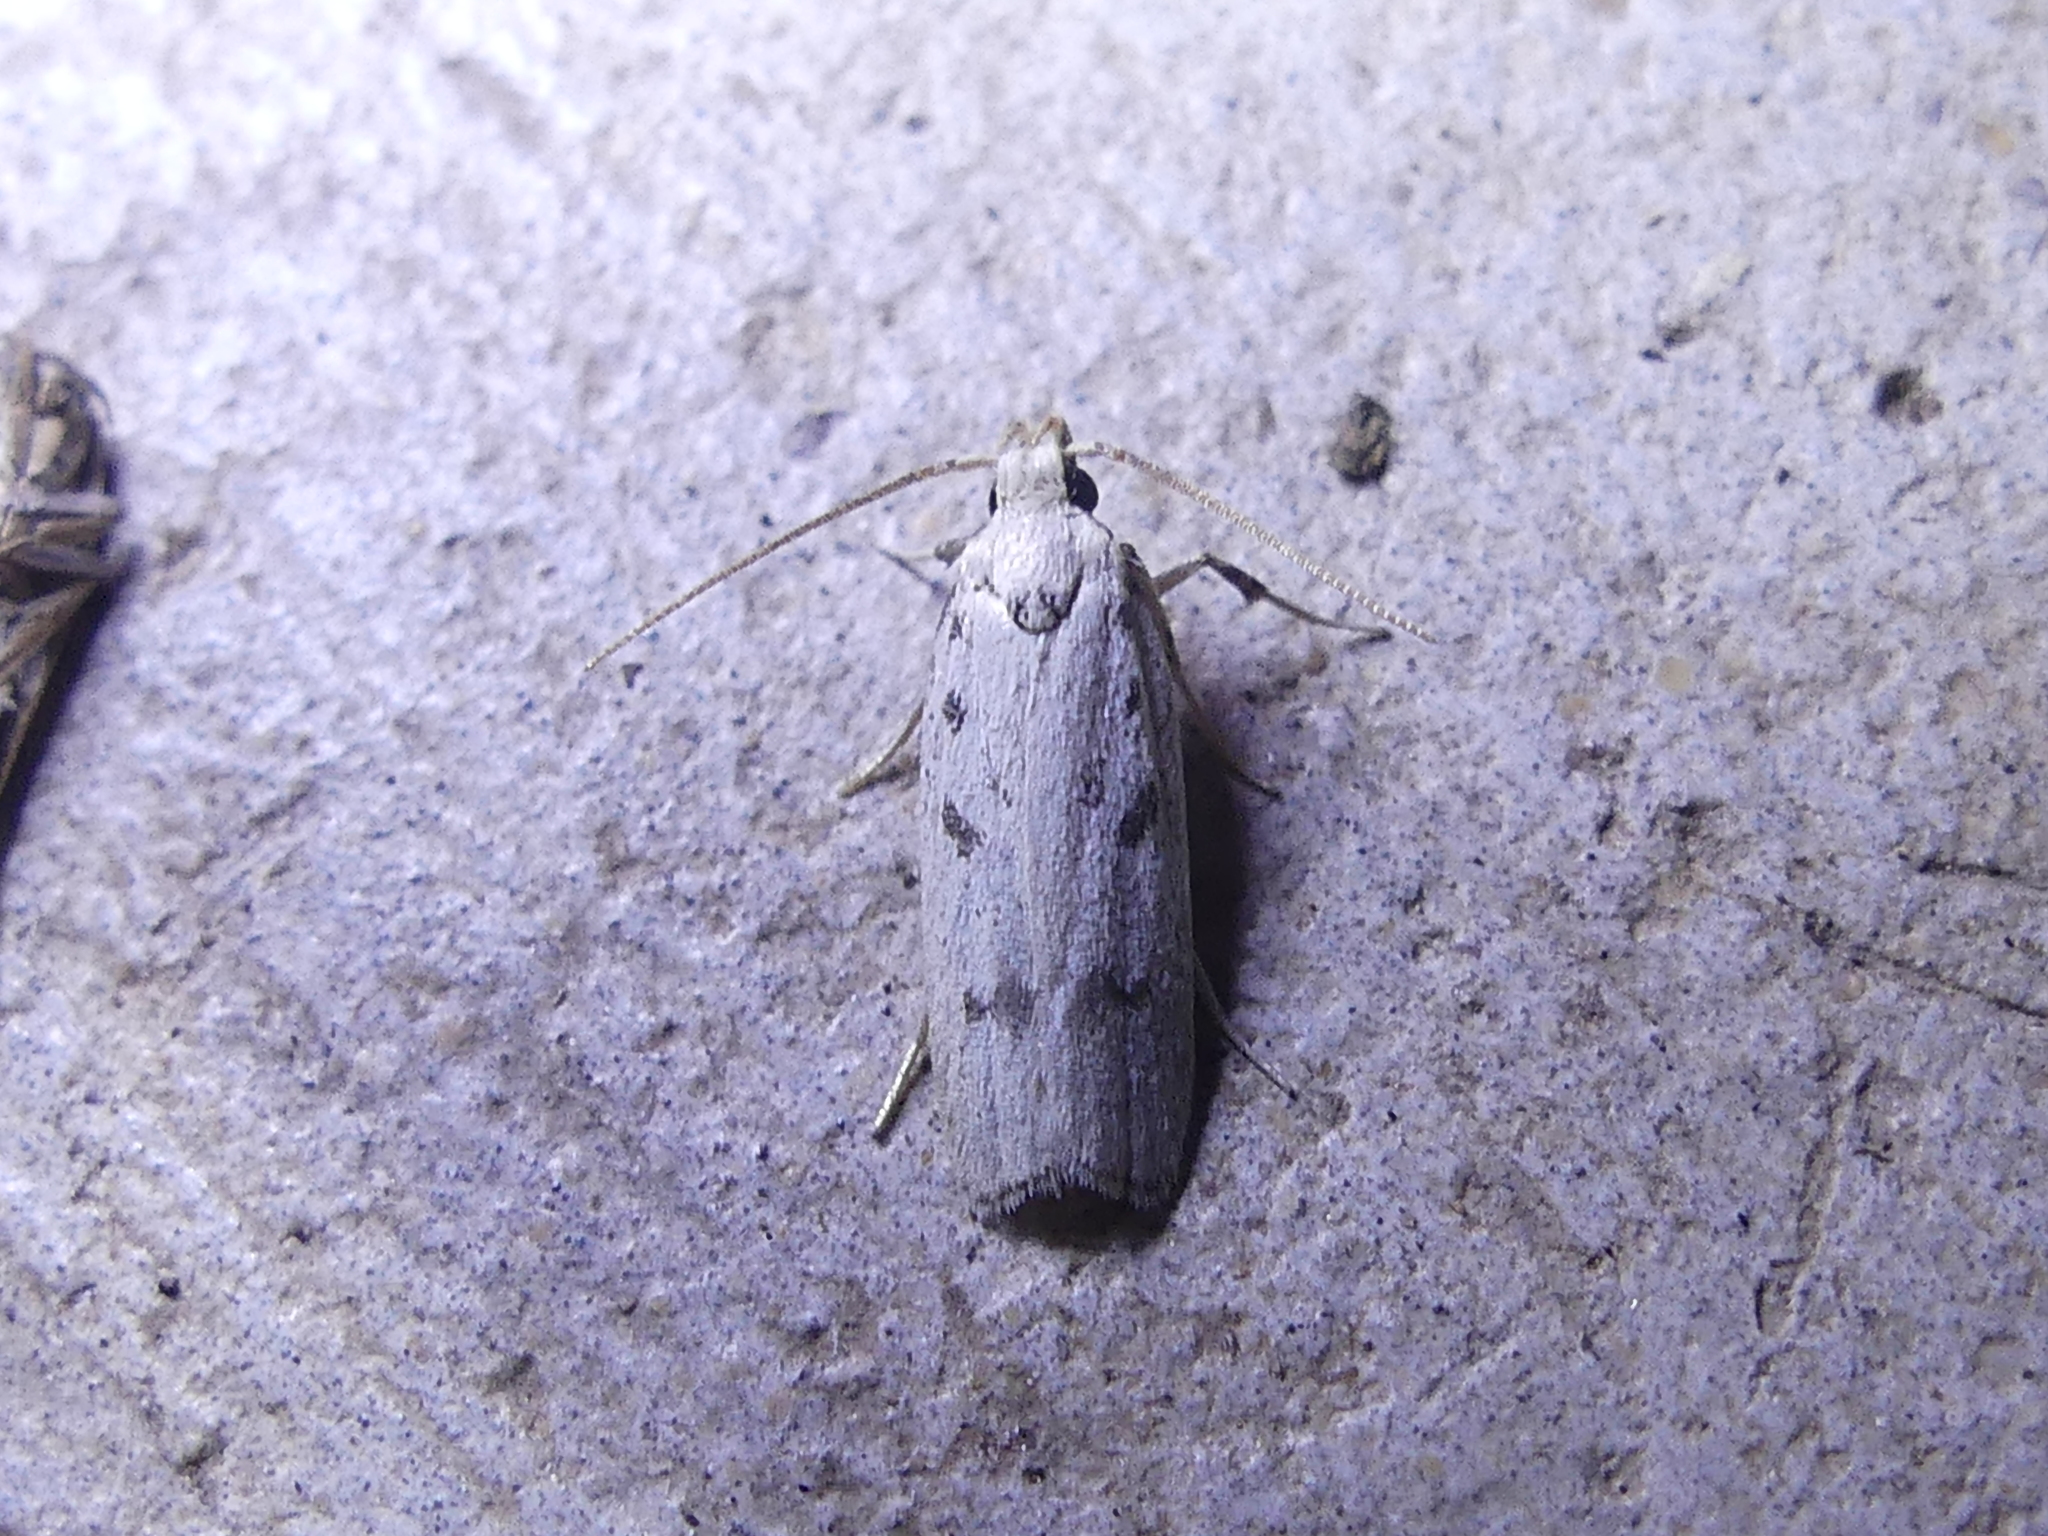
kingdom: Animalia
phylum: Arthropoda
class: Insecta
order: Lepidoptera
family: Autostichidae
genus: Glyphidocera
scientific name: Glyphidocera lactiflosella
